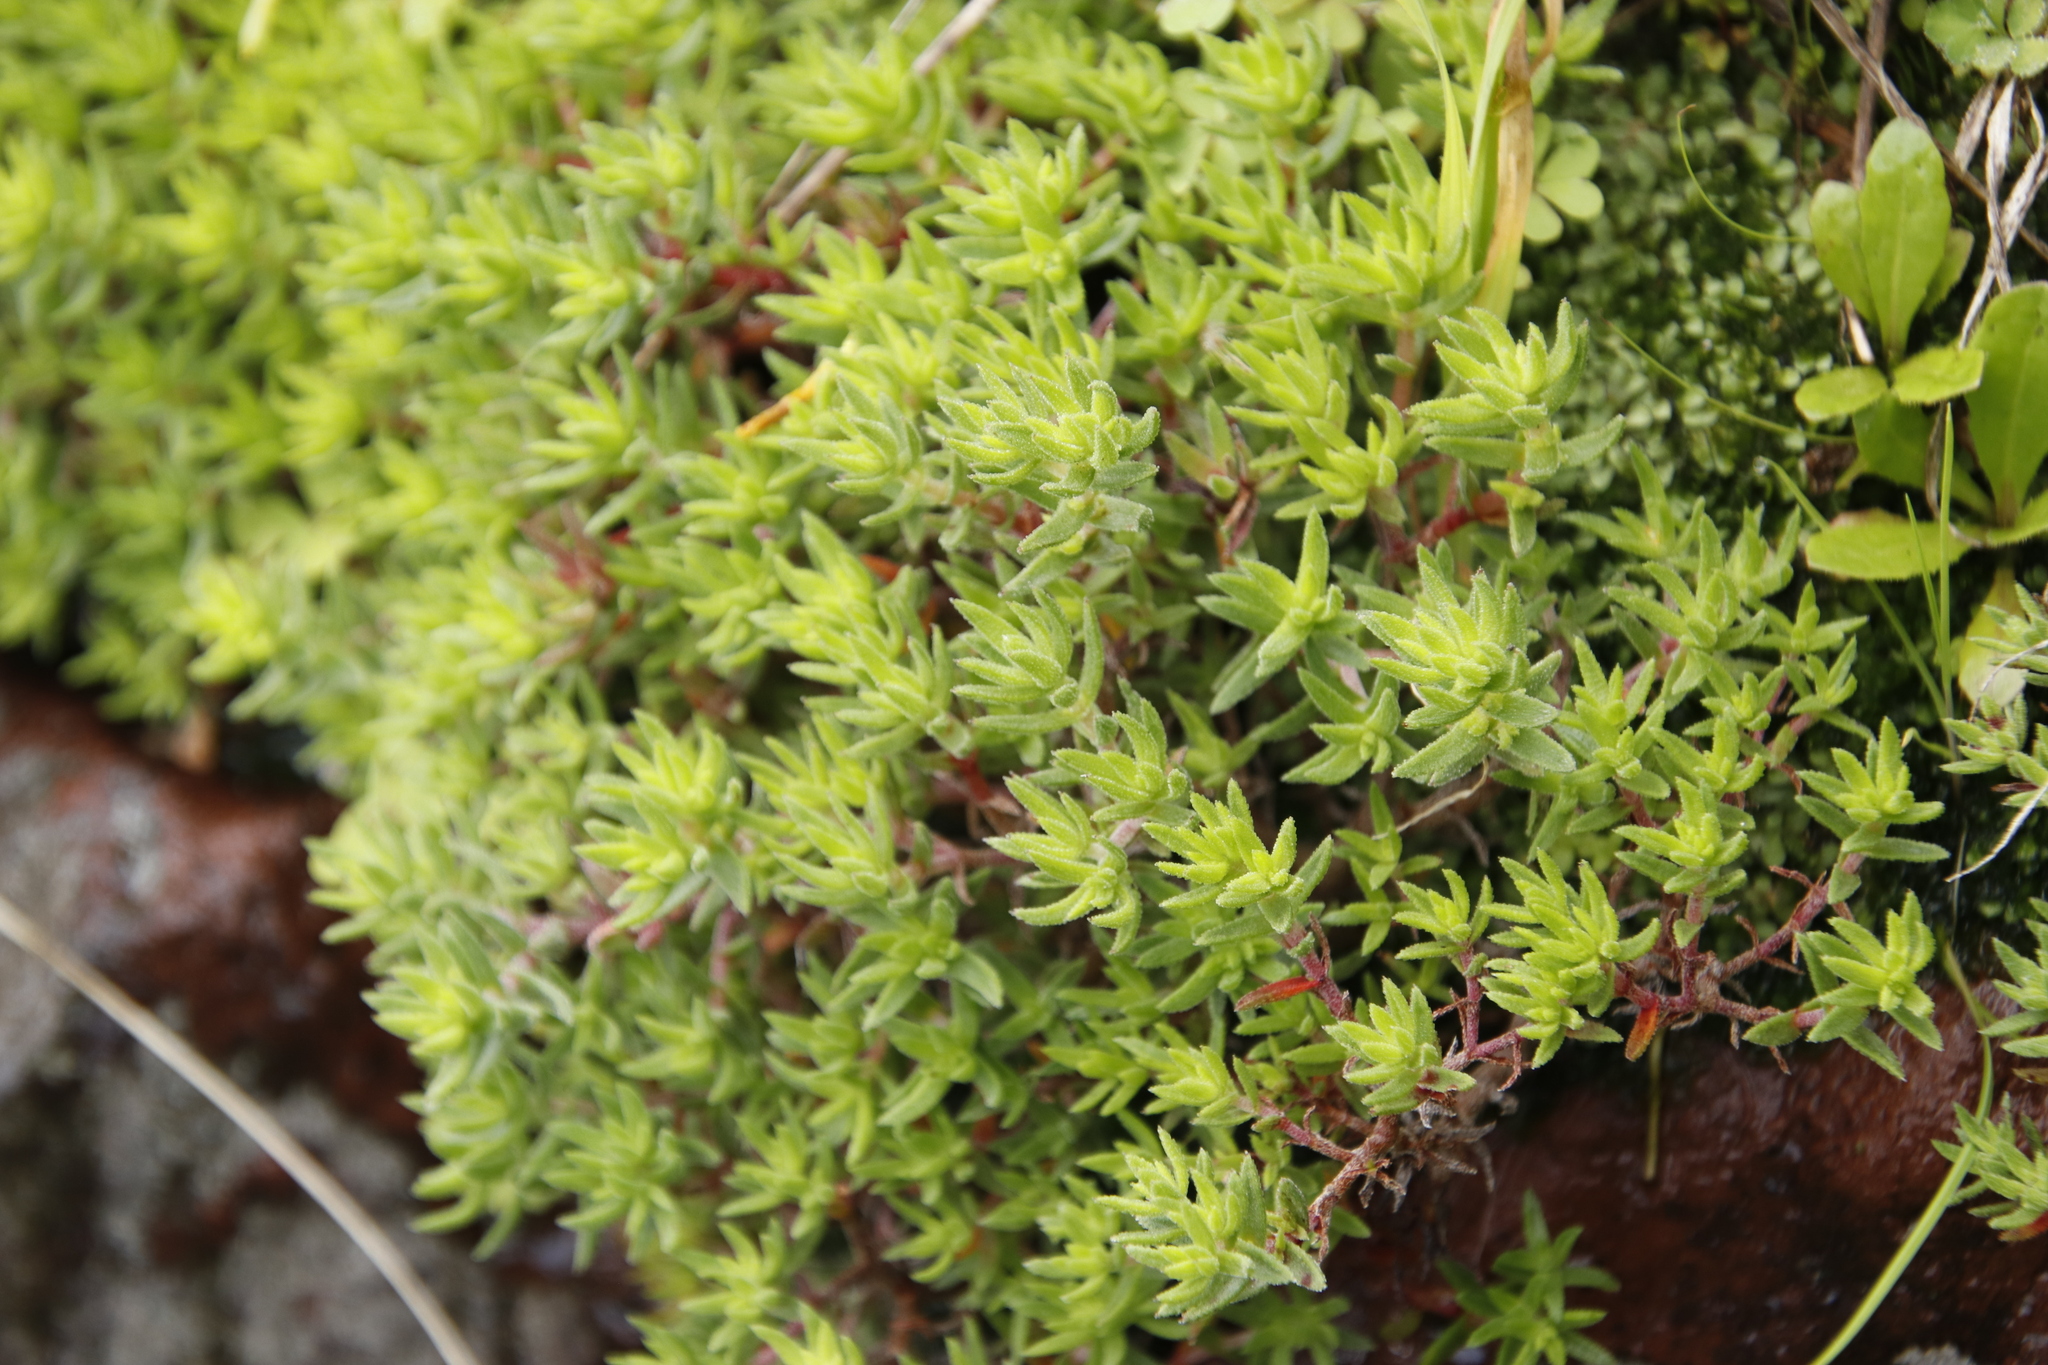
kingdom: Plantae
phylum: Tracheophyta
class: Magnoliopsida
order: Saxifragales
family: Crassulaceae
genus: Crassula
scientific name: Crassula pruinosa
